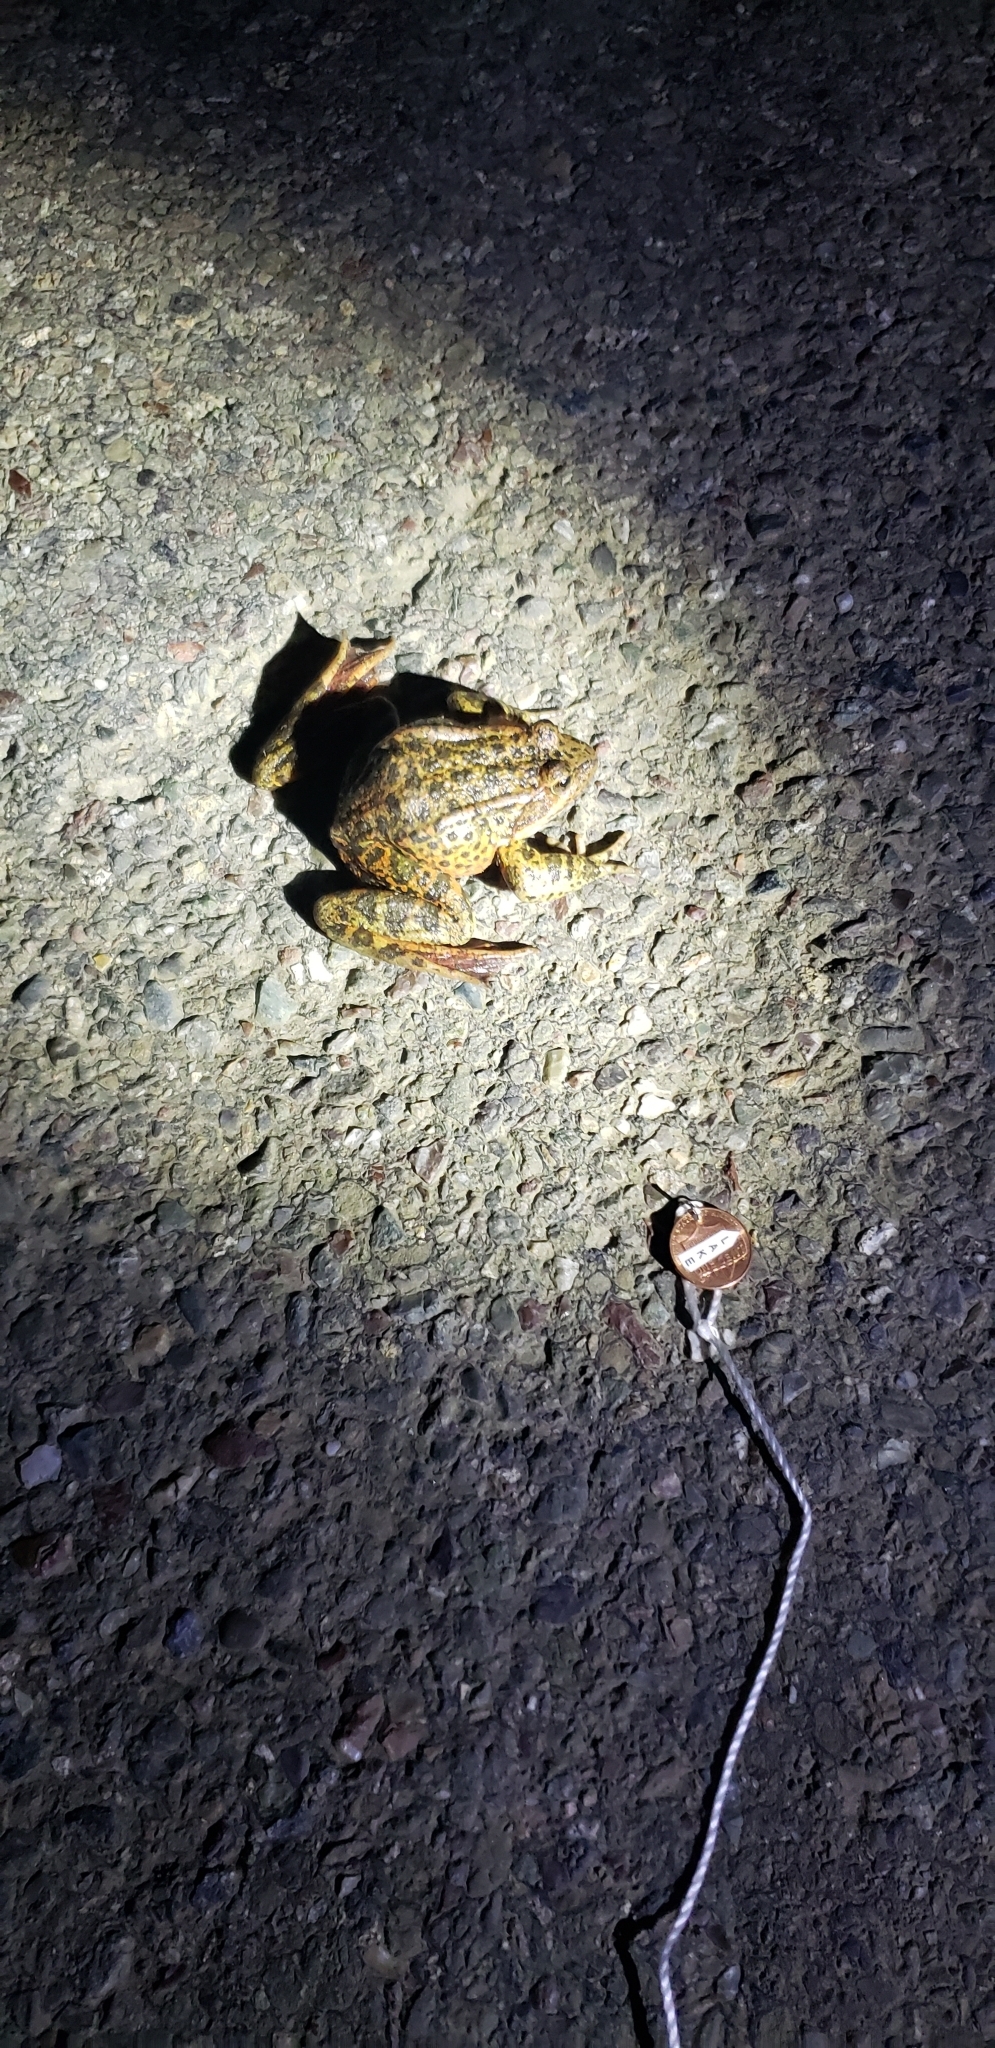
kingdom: Animalia
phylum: Chordata
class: Amphibia
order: Anura
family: Ranidae
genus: Rana
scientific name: Rana draytonii
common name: California red-legged frog
